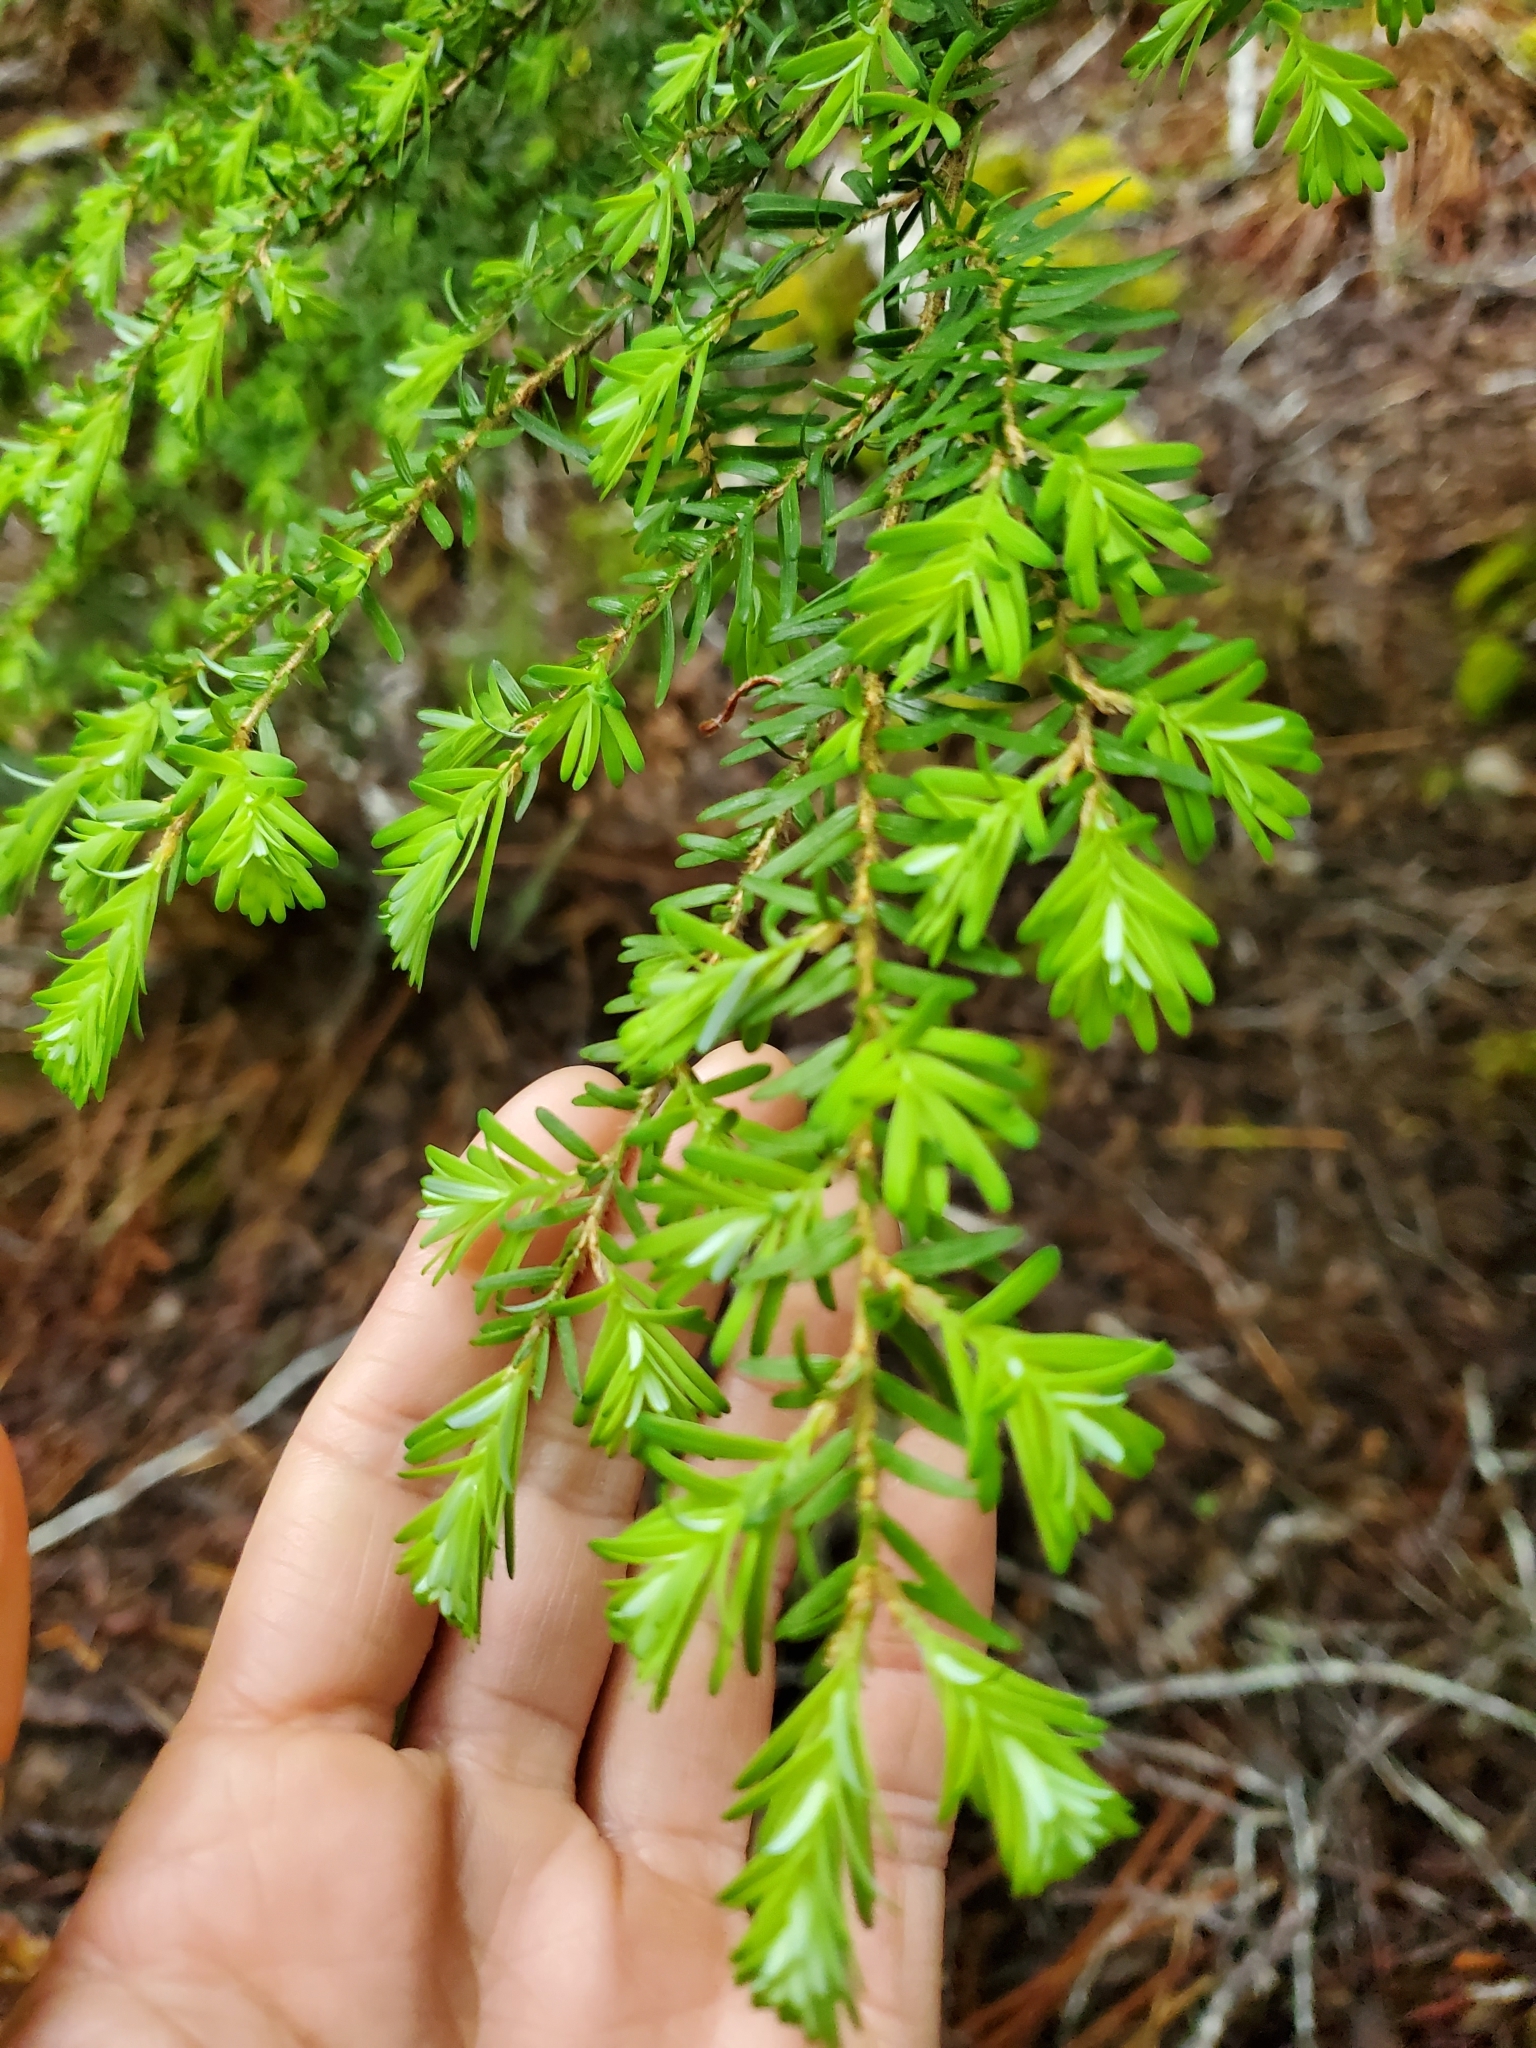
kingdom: Plantae
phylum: Tracheophyta
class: Pinopsida
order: Pinales
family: Pinaceae
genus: Tsuga
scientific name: Tsuga heterophylla
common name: Western hemlock
